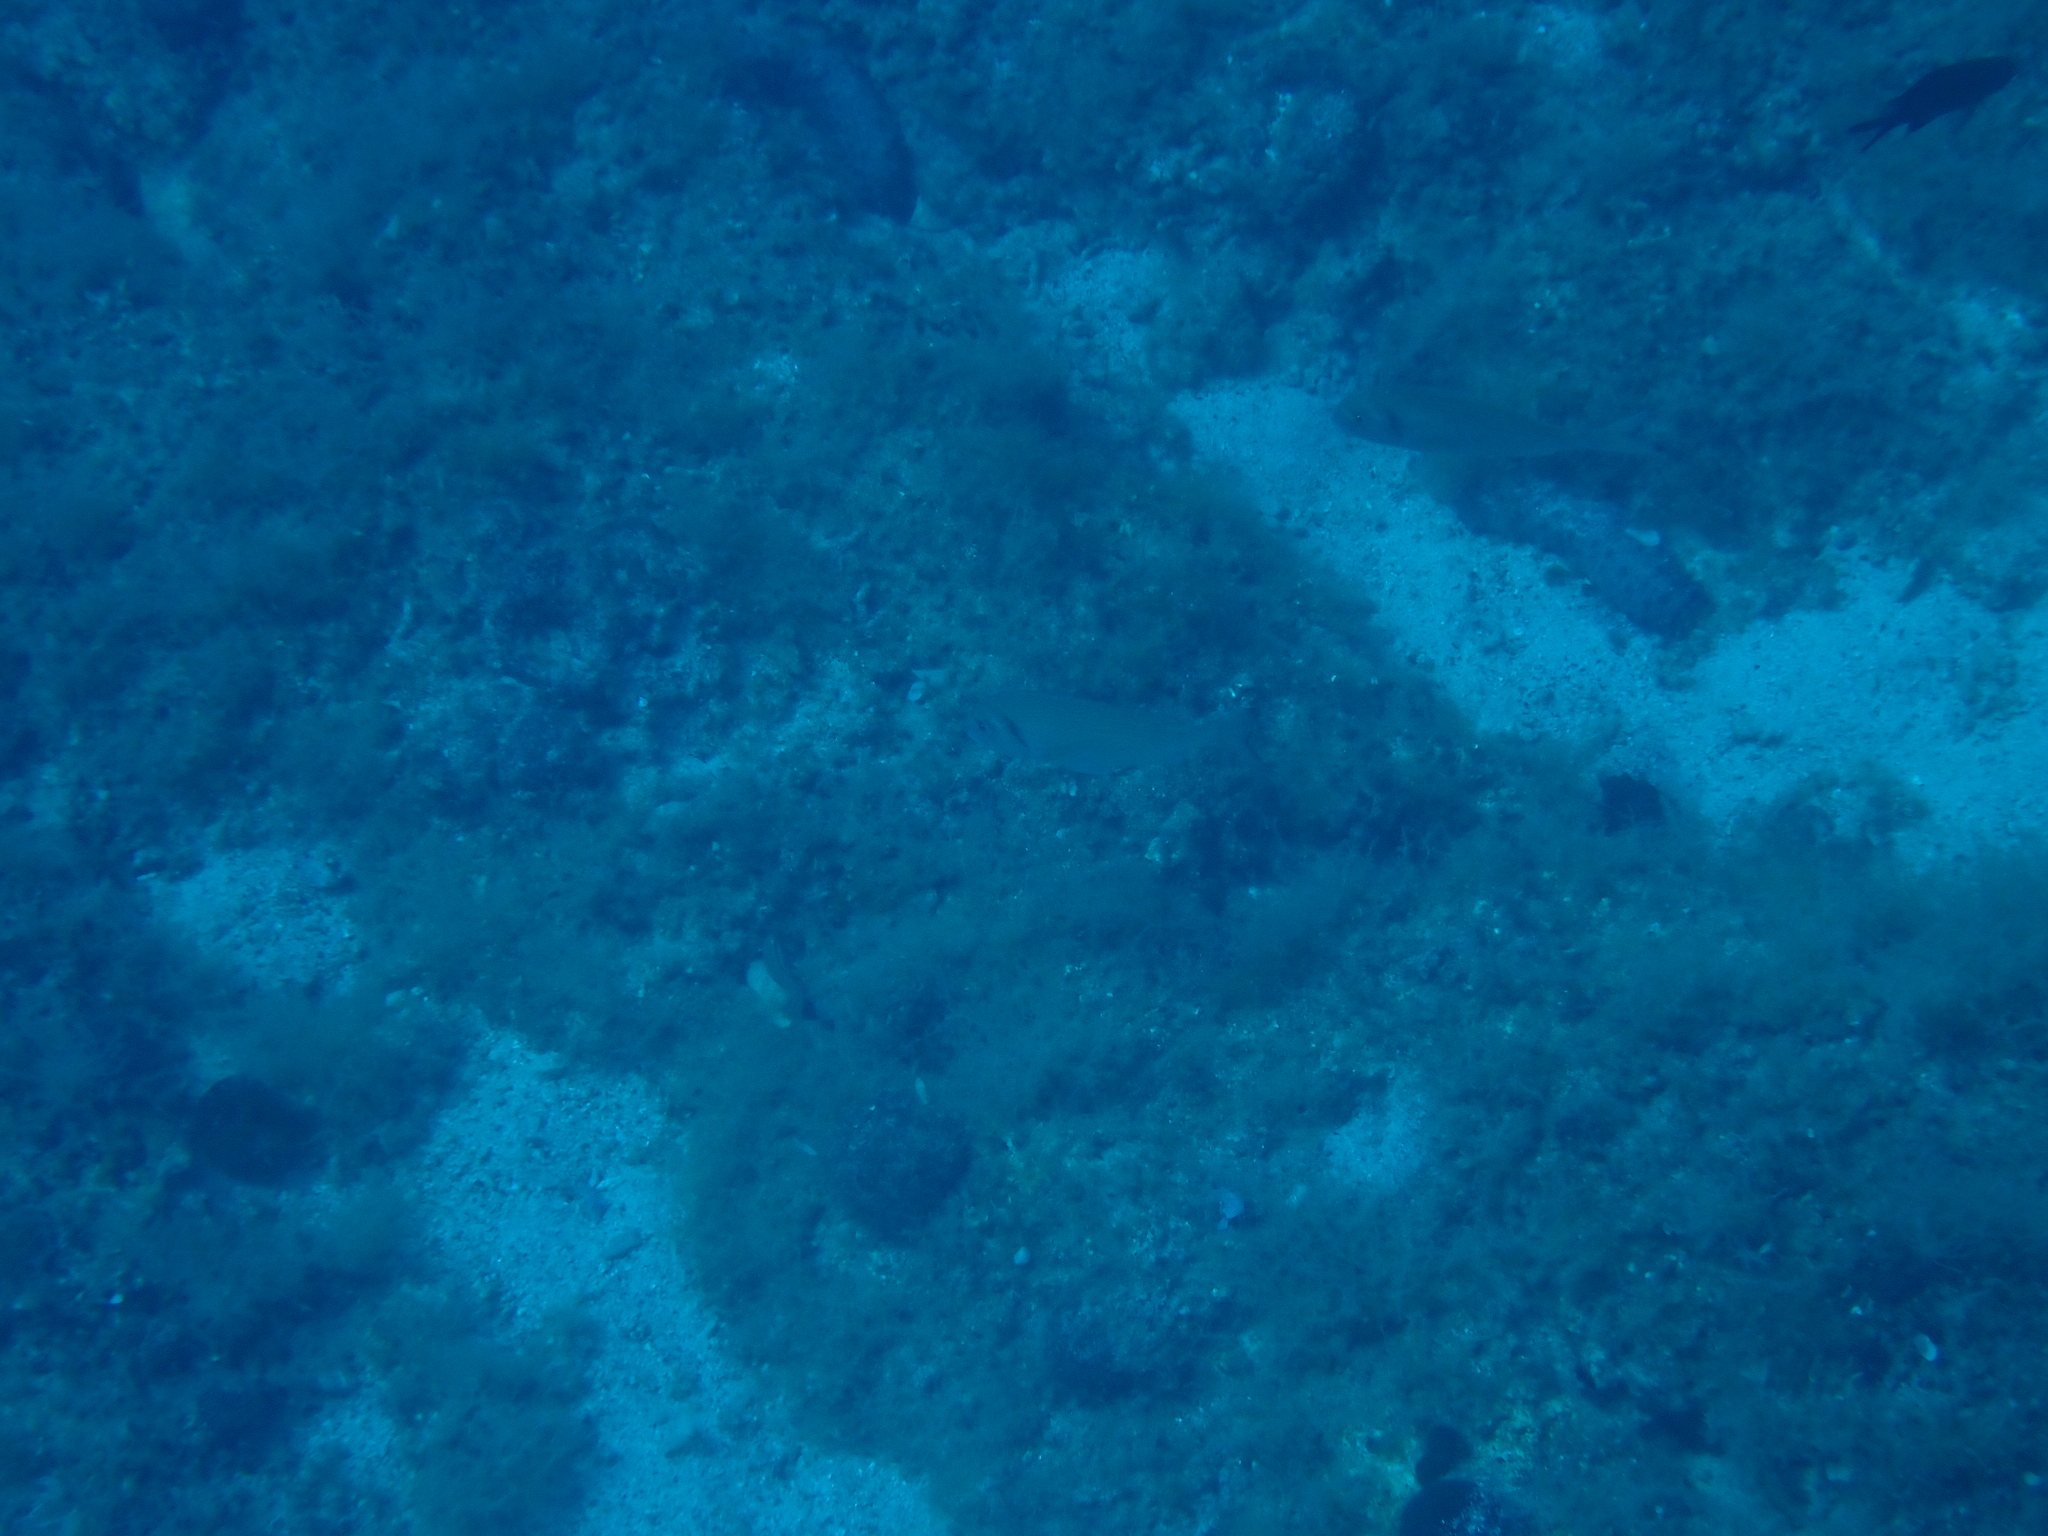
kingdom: Animalia
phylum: Chordata
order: Perciformes
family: Sparidae
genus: Sparus
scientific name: Sparus aurata
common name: Gilthead
